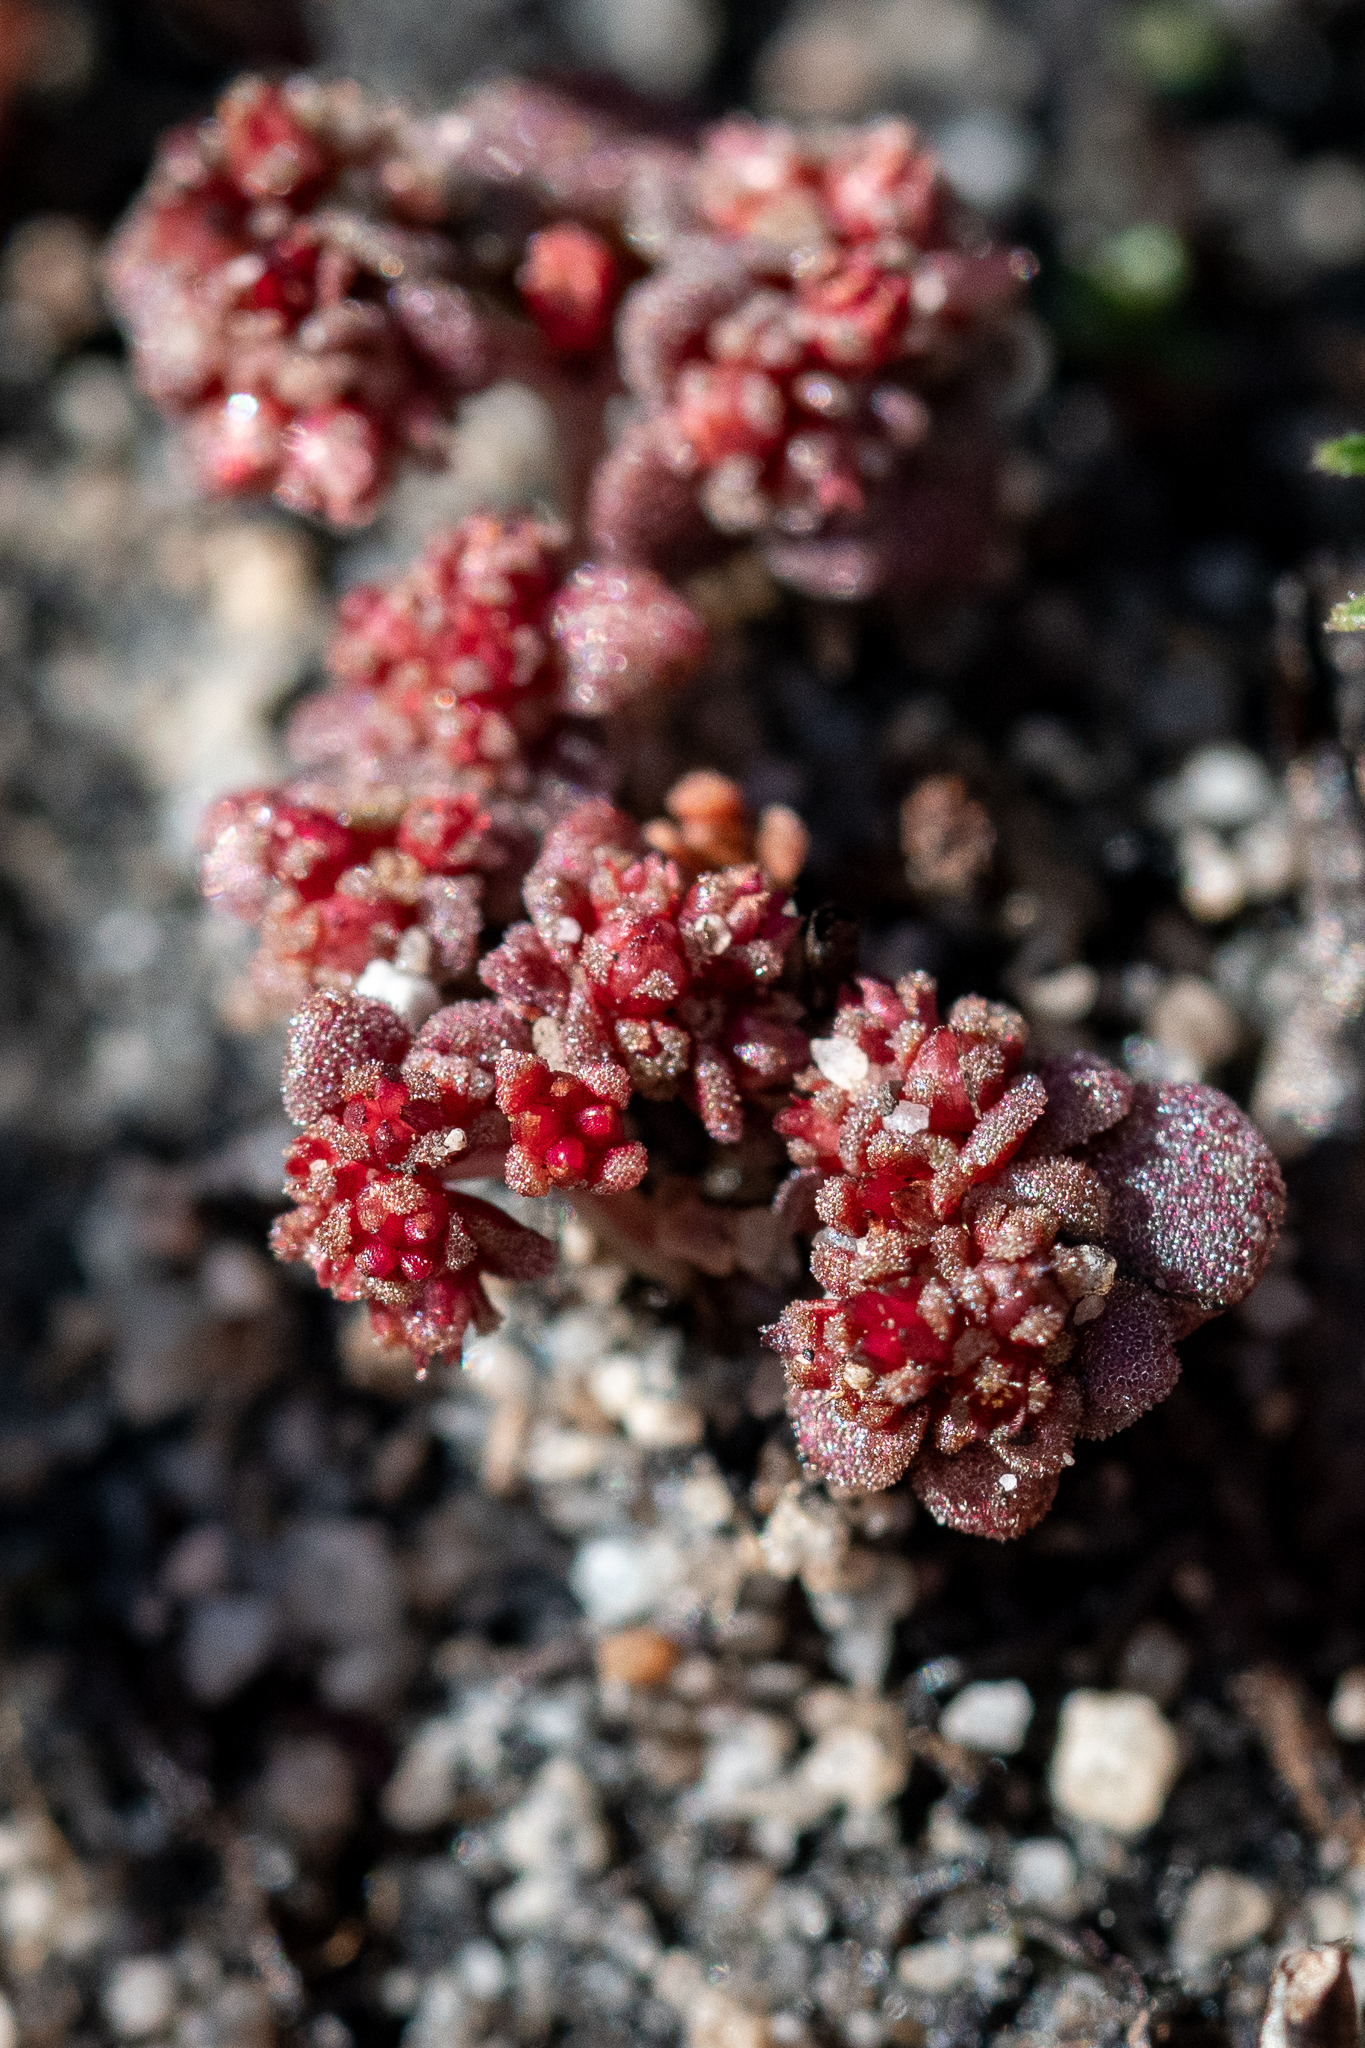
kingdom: Plantae
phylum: Tracheophyta
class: Magnoliopsida
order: Saxifragales
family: Crassulaceae
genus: Crassula
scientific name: Crassula umbellata
